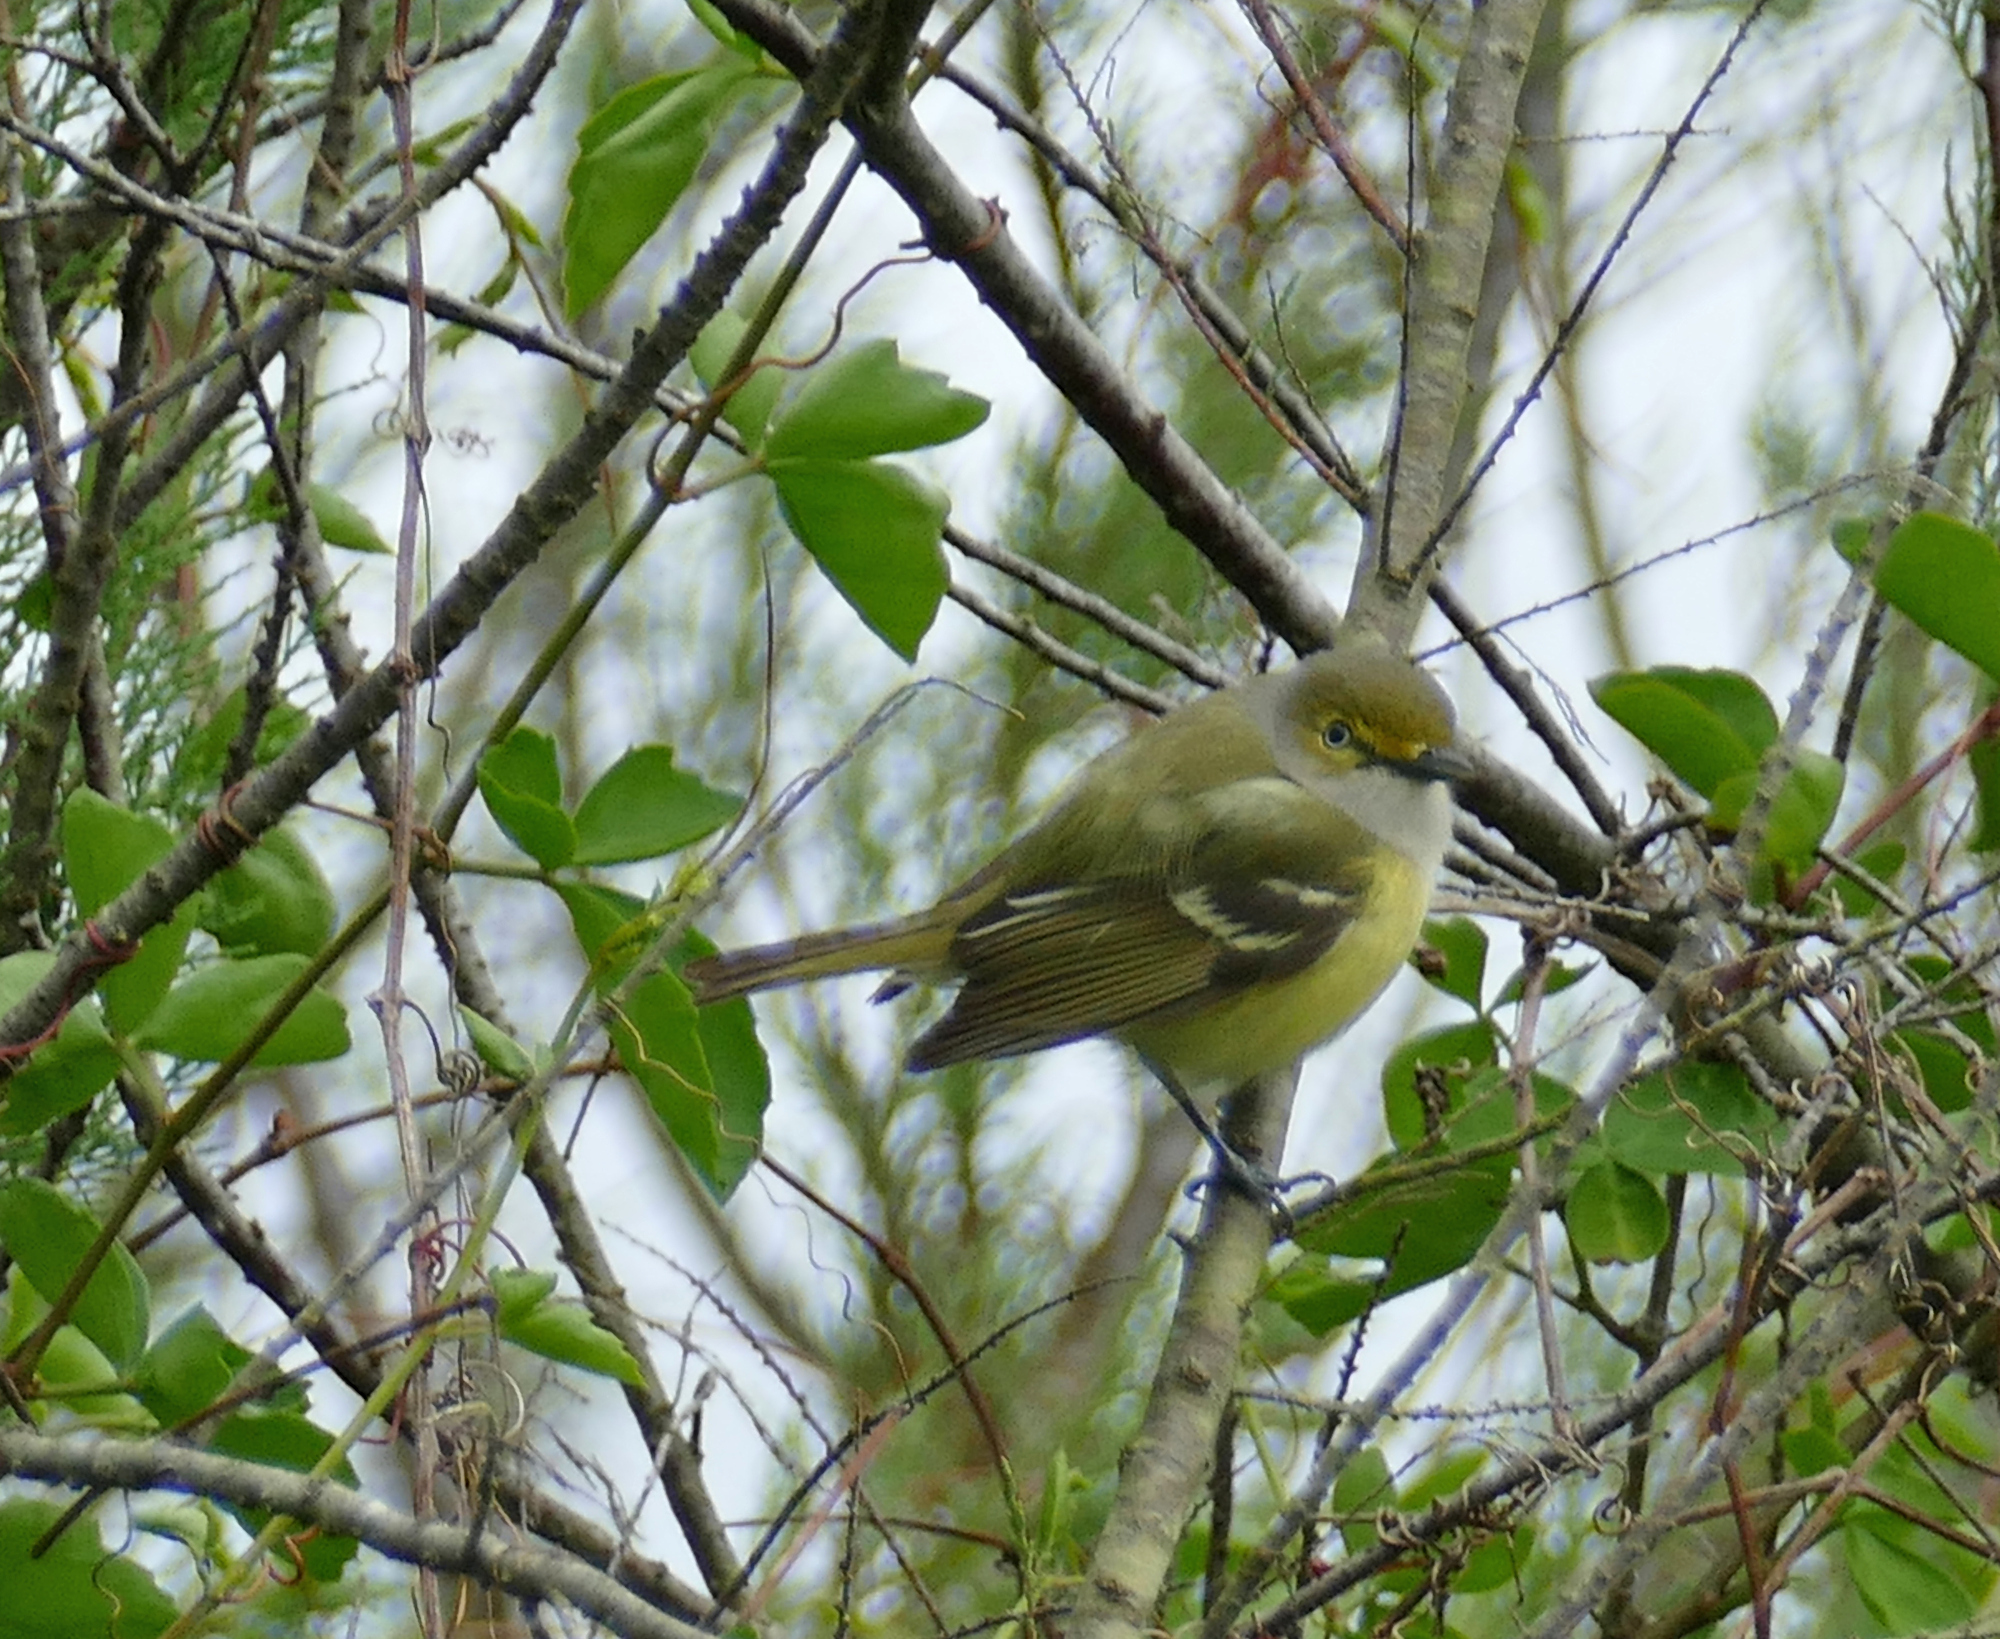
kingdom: Animalia
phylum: Chordata
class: Aves
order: Passeriformes
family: Vireonidae
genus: Vireo
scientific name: Vireo griseus
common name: White-eyed vireo
